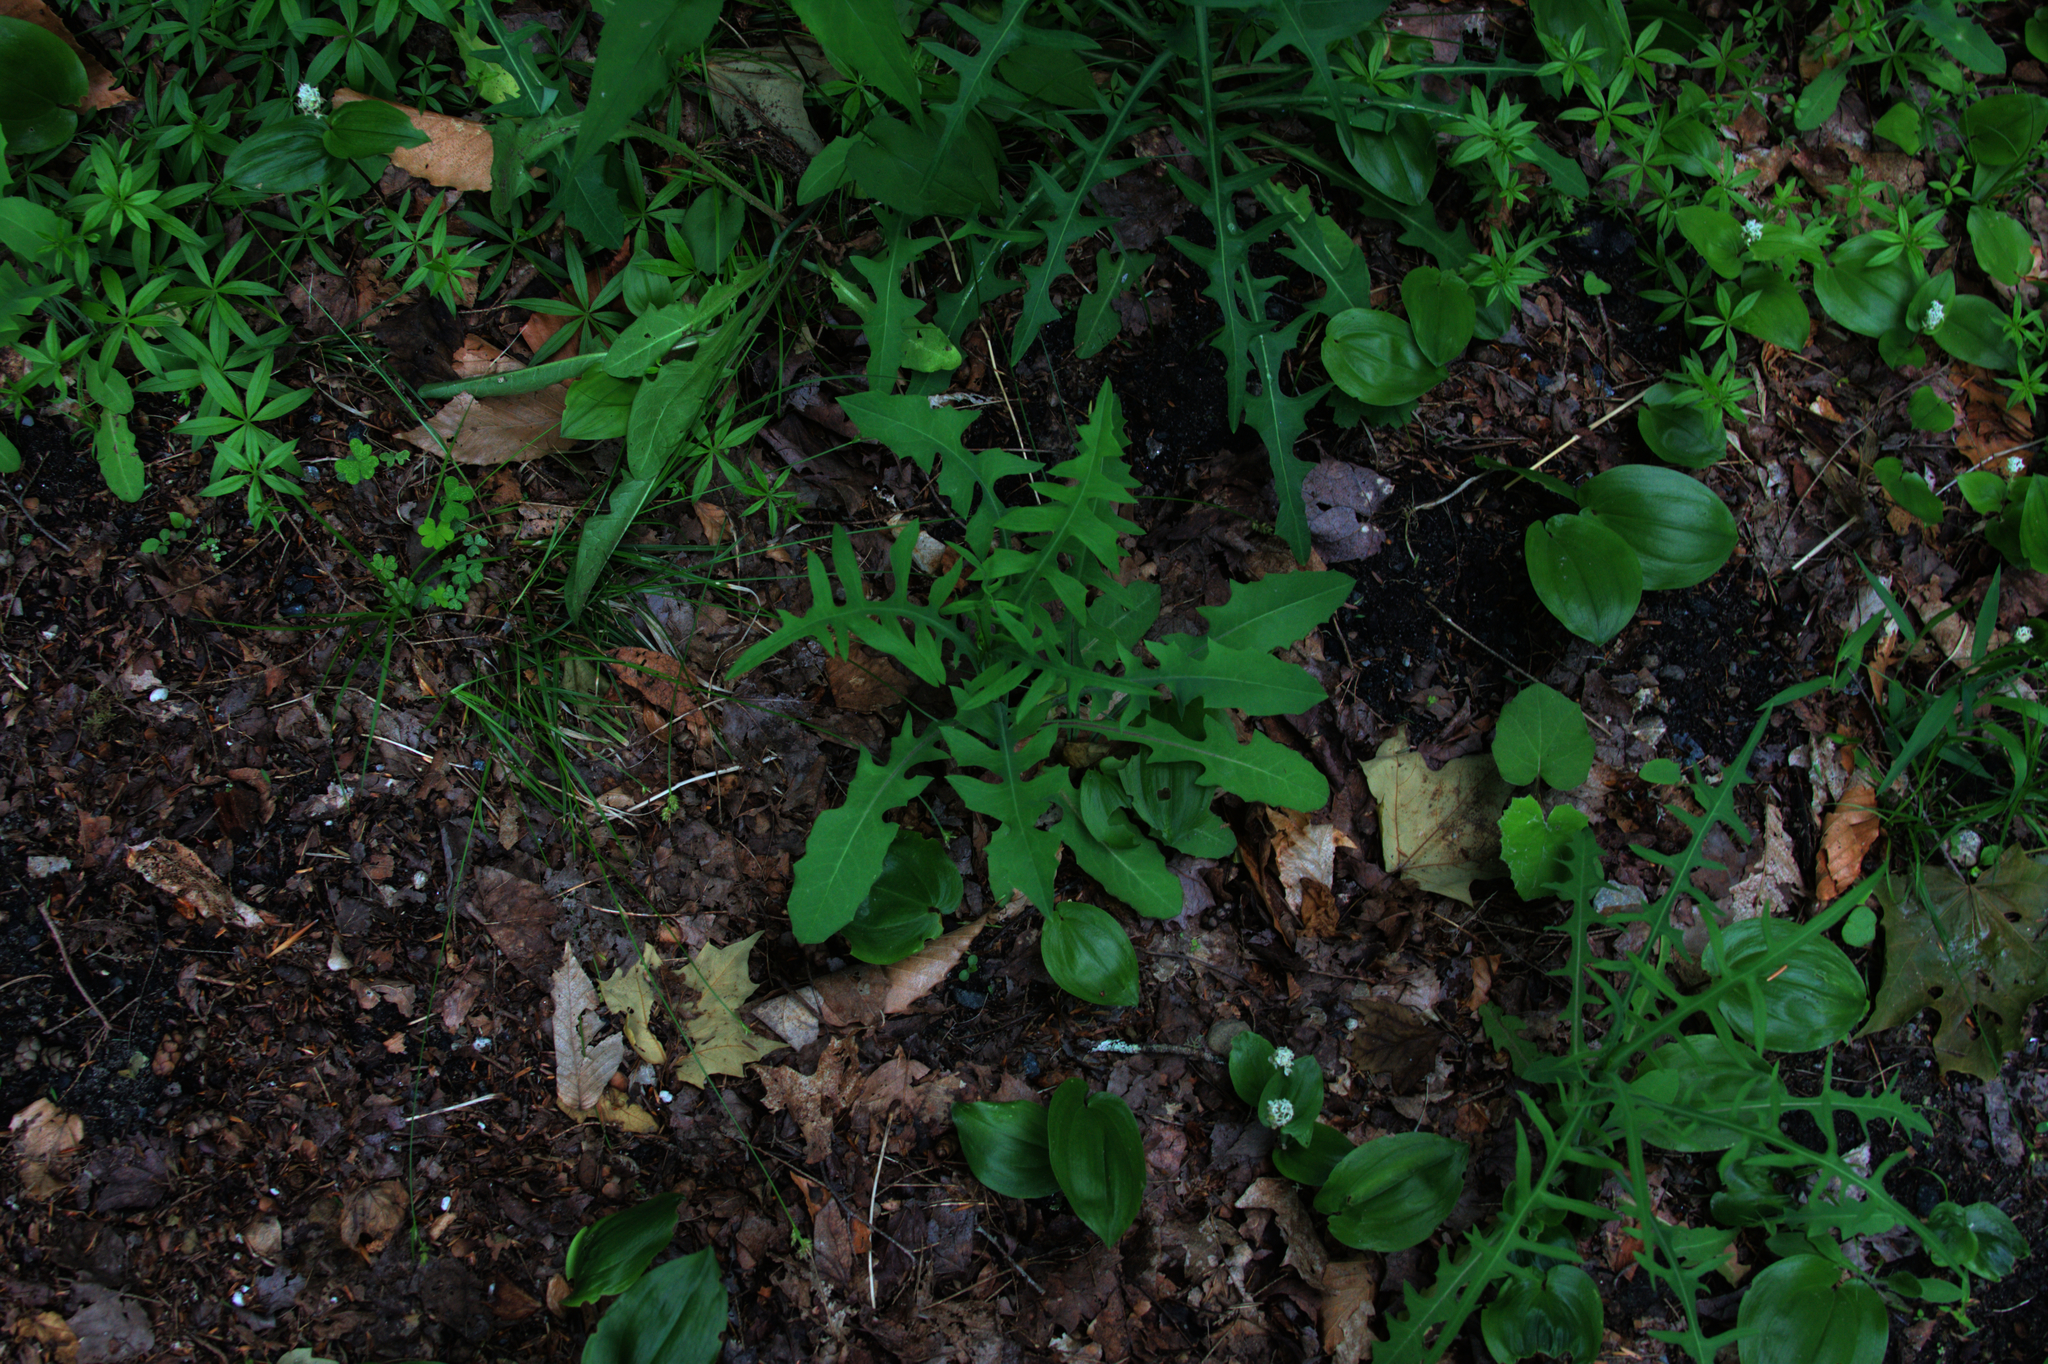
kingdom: Plantae
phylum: Tracheophyta
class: Liliopsida
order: Asparagales
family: Asparagaceae
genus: Maianthemum
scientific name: Maianthemum canadense
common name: False lily-of-the-valley
